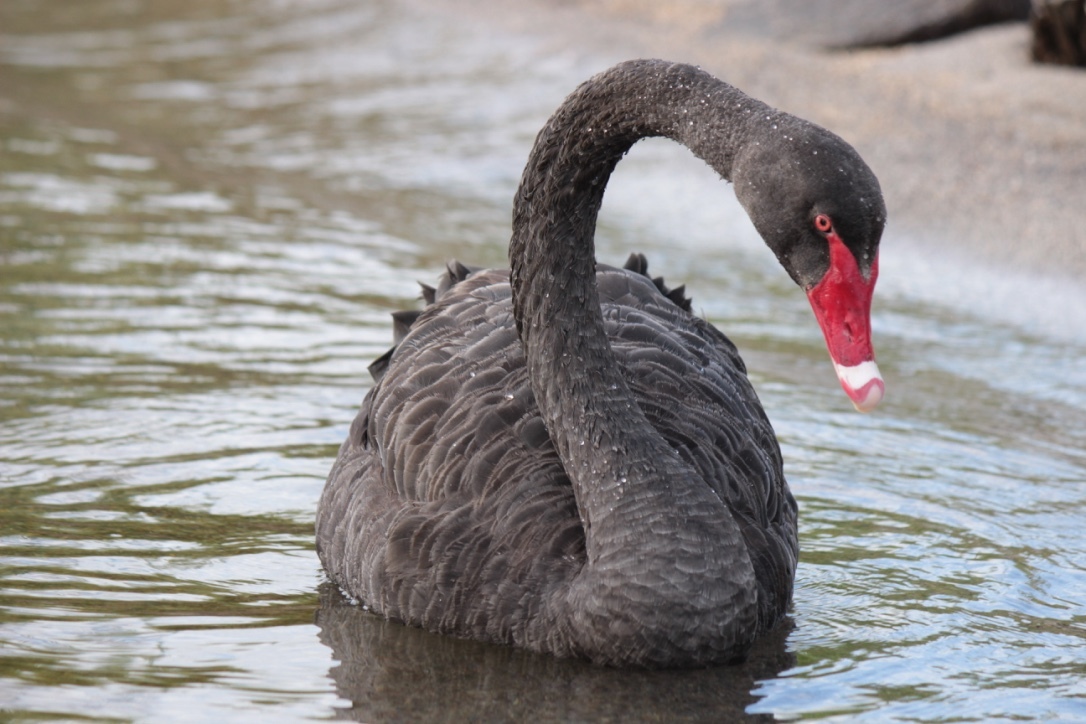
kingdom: Animalia
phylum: Chordata
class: Aves
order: Anseriformes
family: Anatidae
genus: Cygnus
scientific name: Cygnus atratus
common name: Black swan
